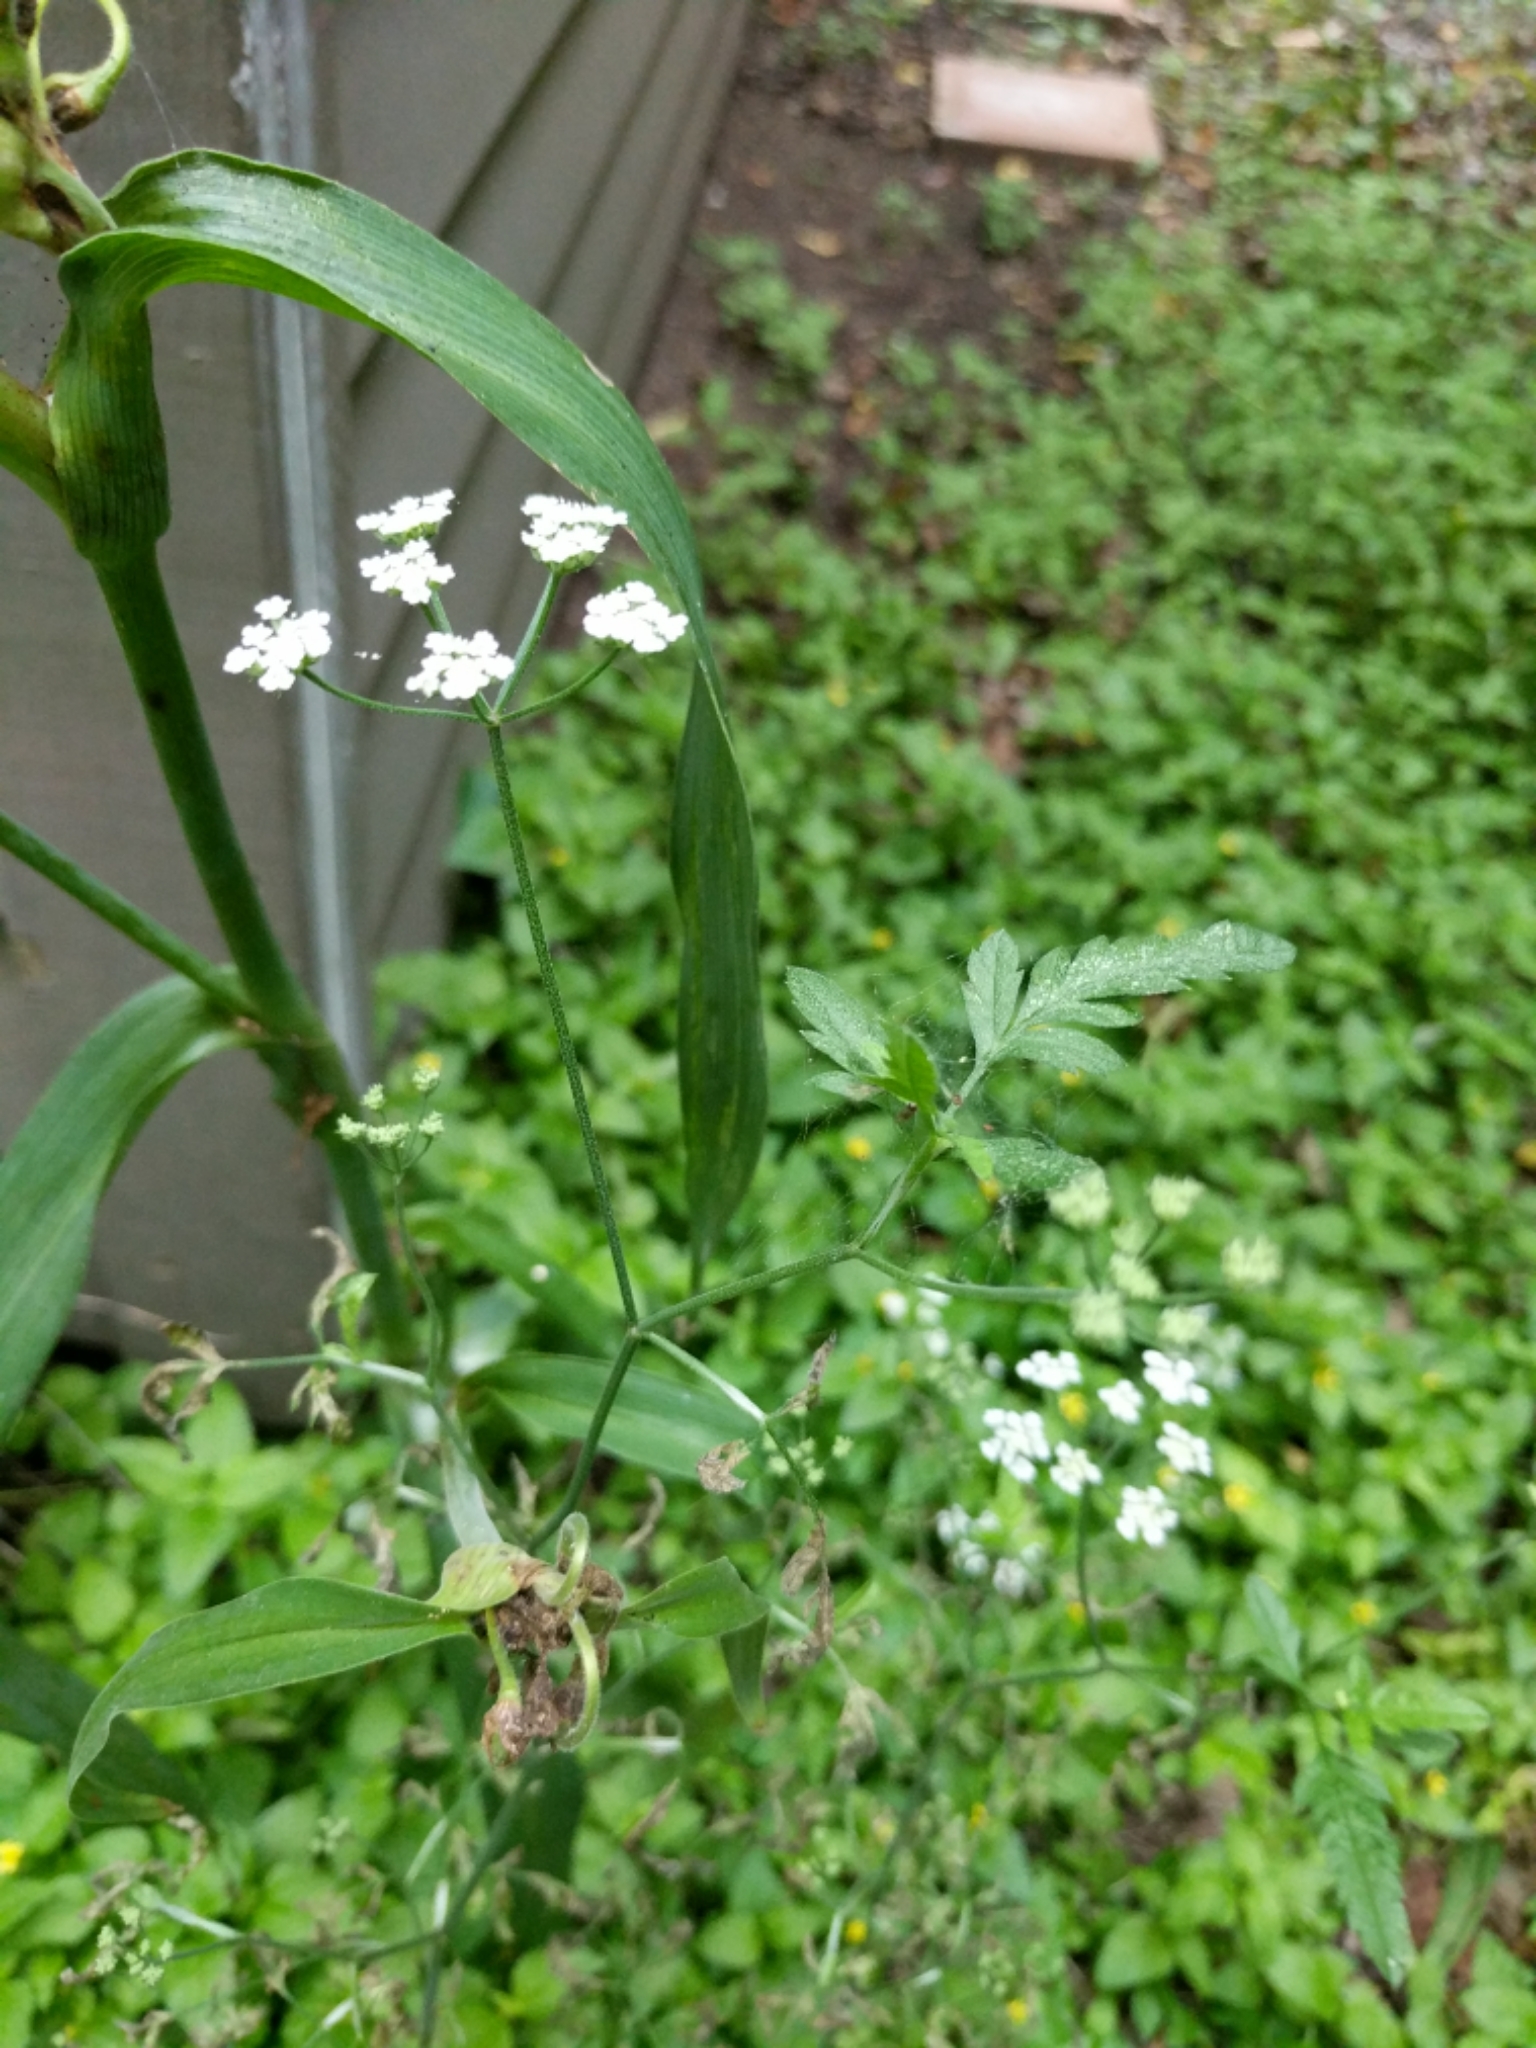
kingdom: Plantae
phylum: Tracheophyta
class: Magnoliopsida
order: Apiales
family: Apiaceae
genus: Torilis
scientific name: Torilis arvensis
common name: Spreading hedge-parsley
